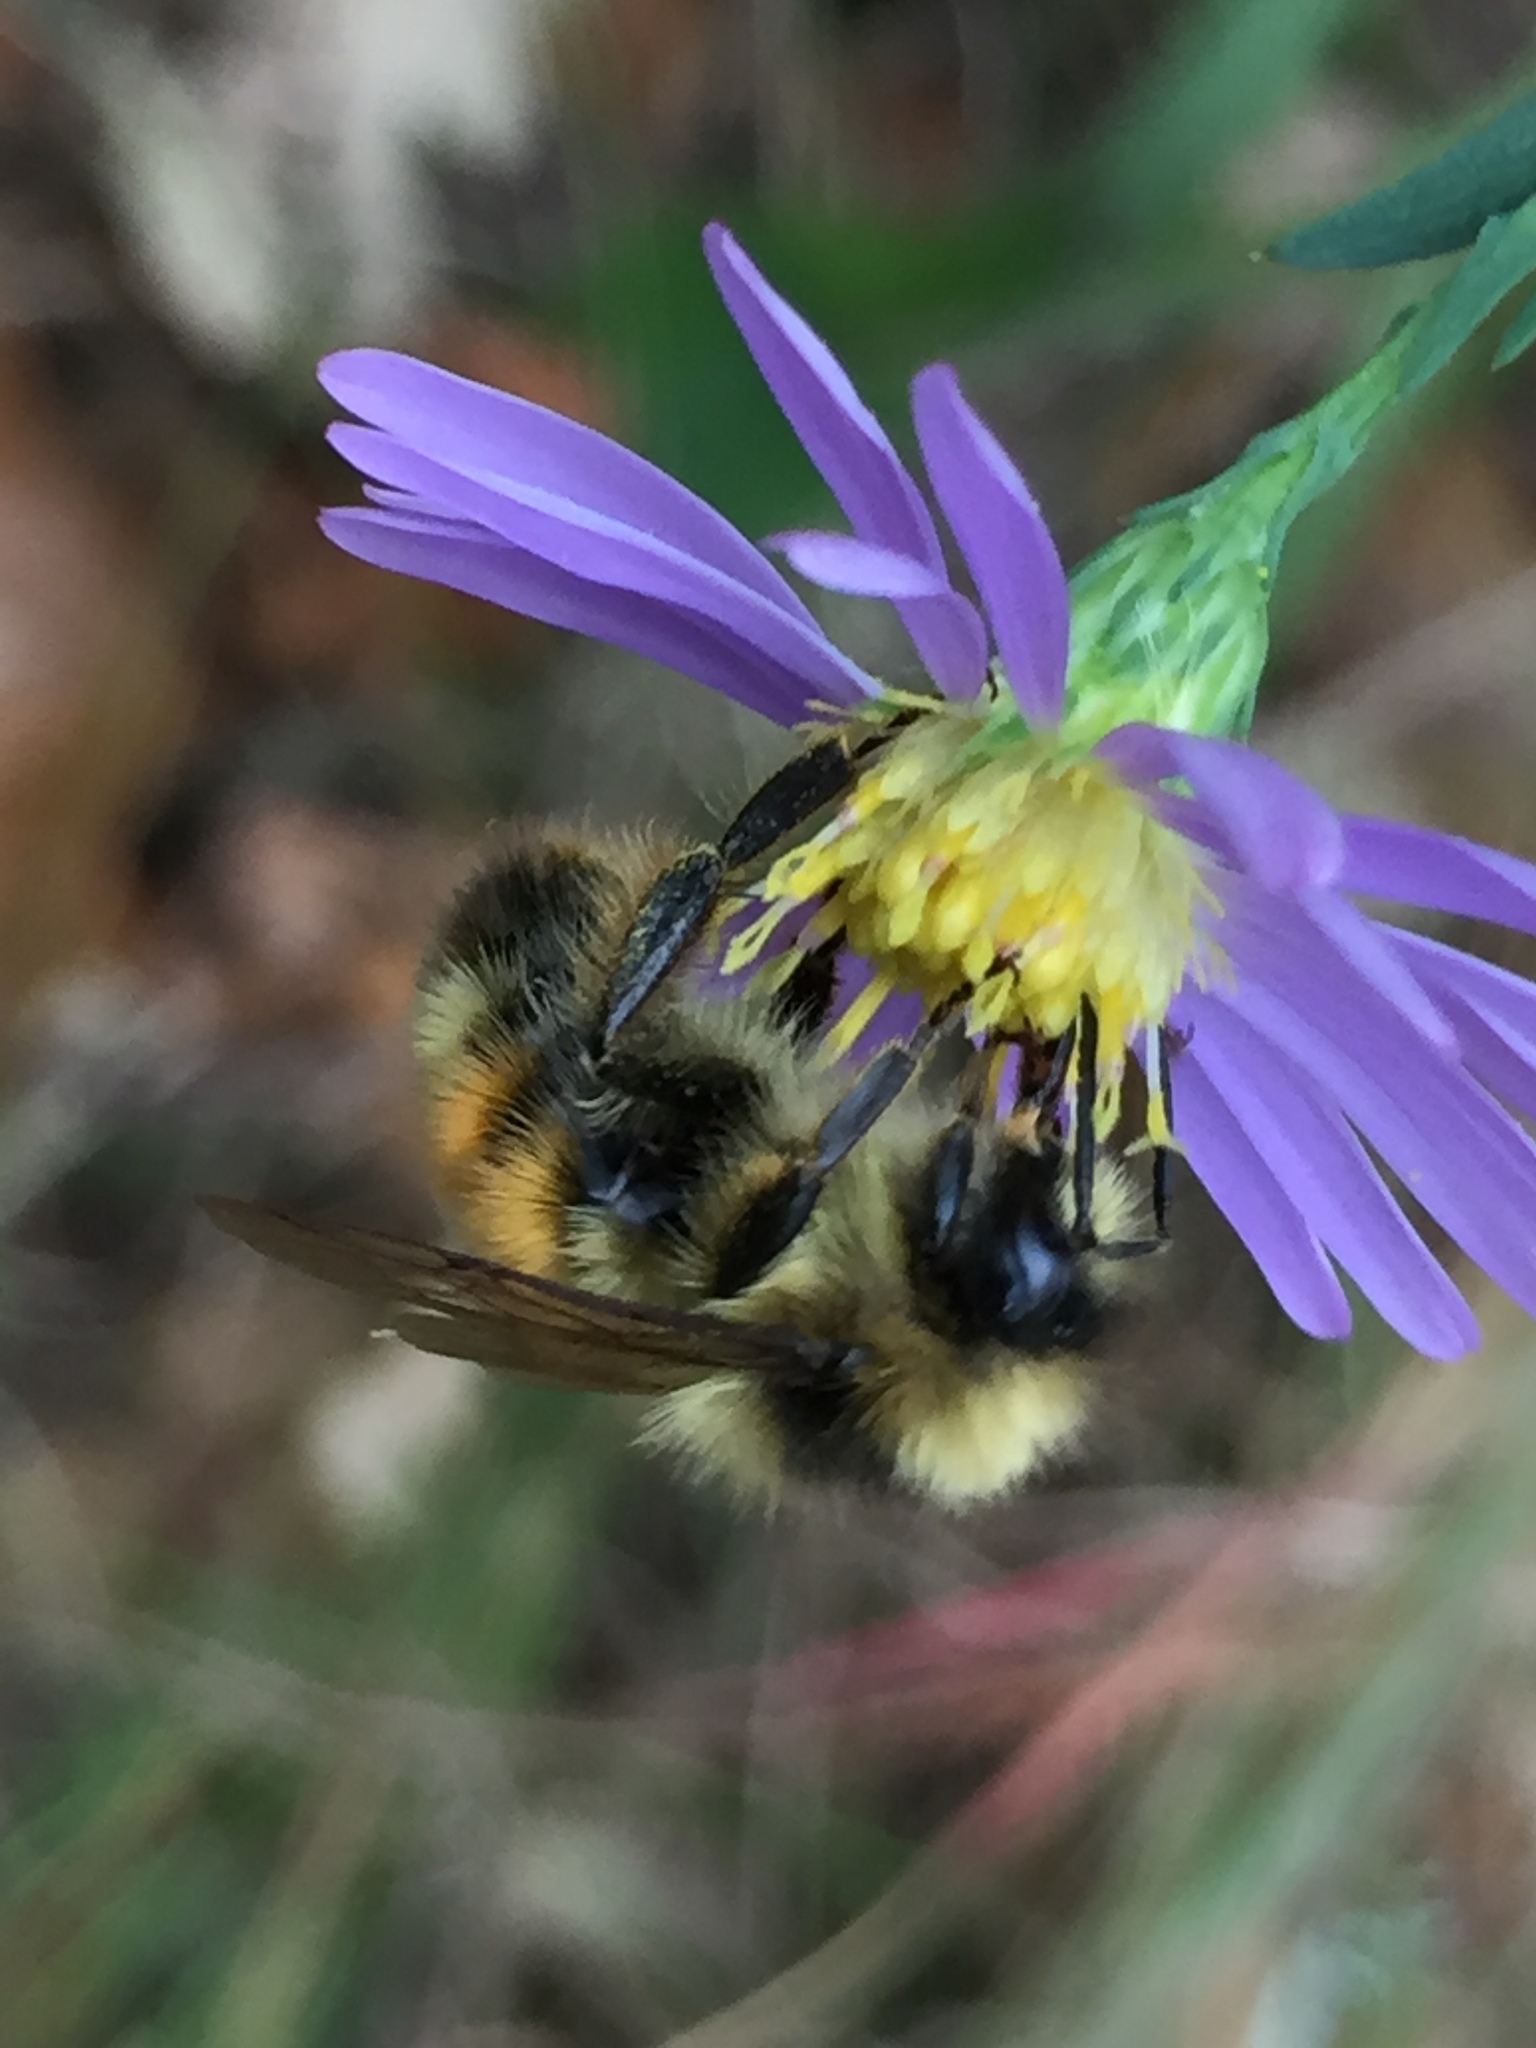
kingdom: Animalia
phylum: Arthropoda
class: Insecta
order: Hymenoptera
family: Apidae
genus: Pyrobombus
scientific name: Pyrobombus
